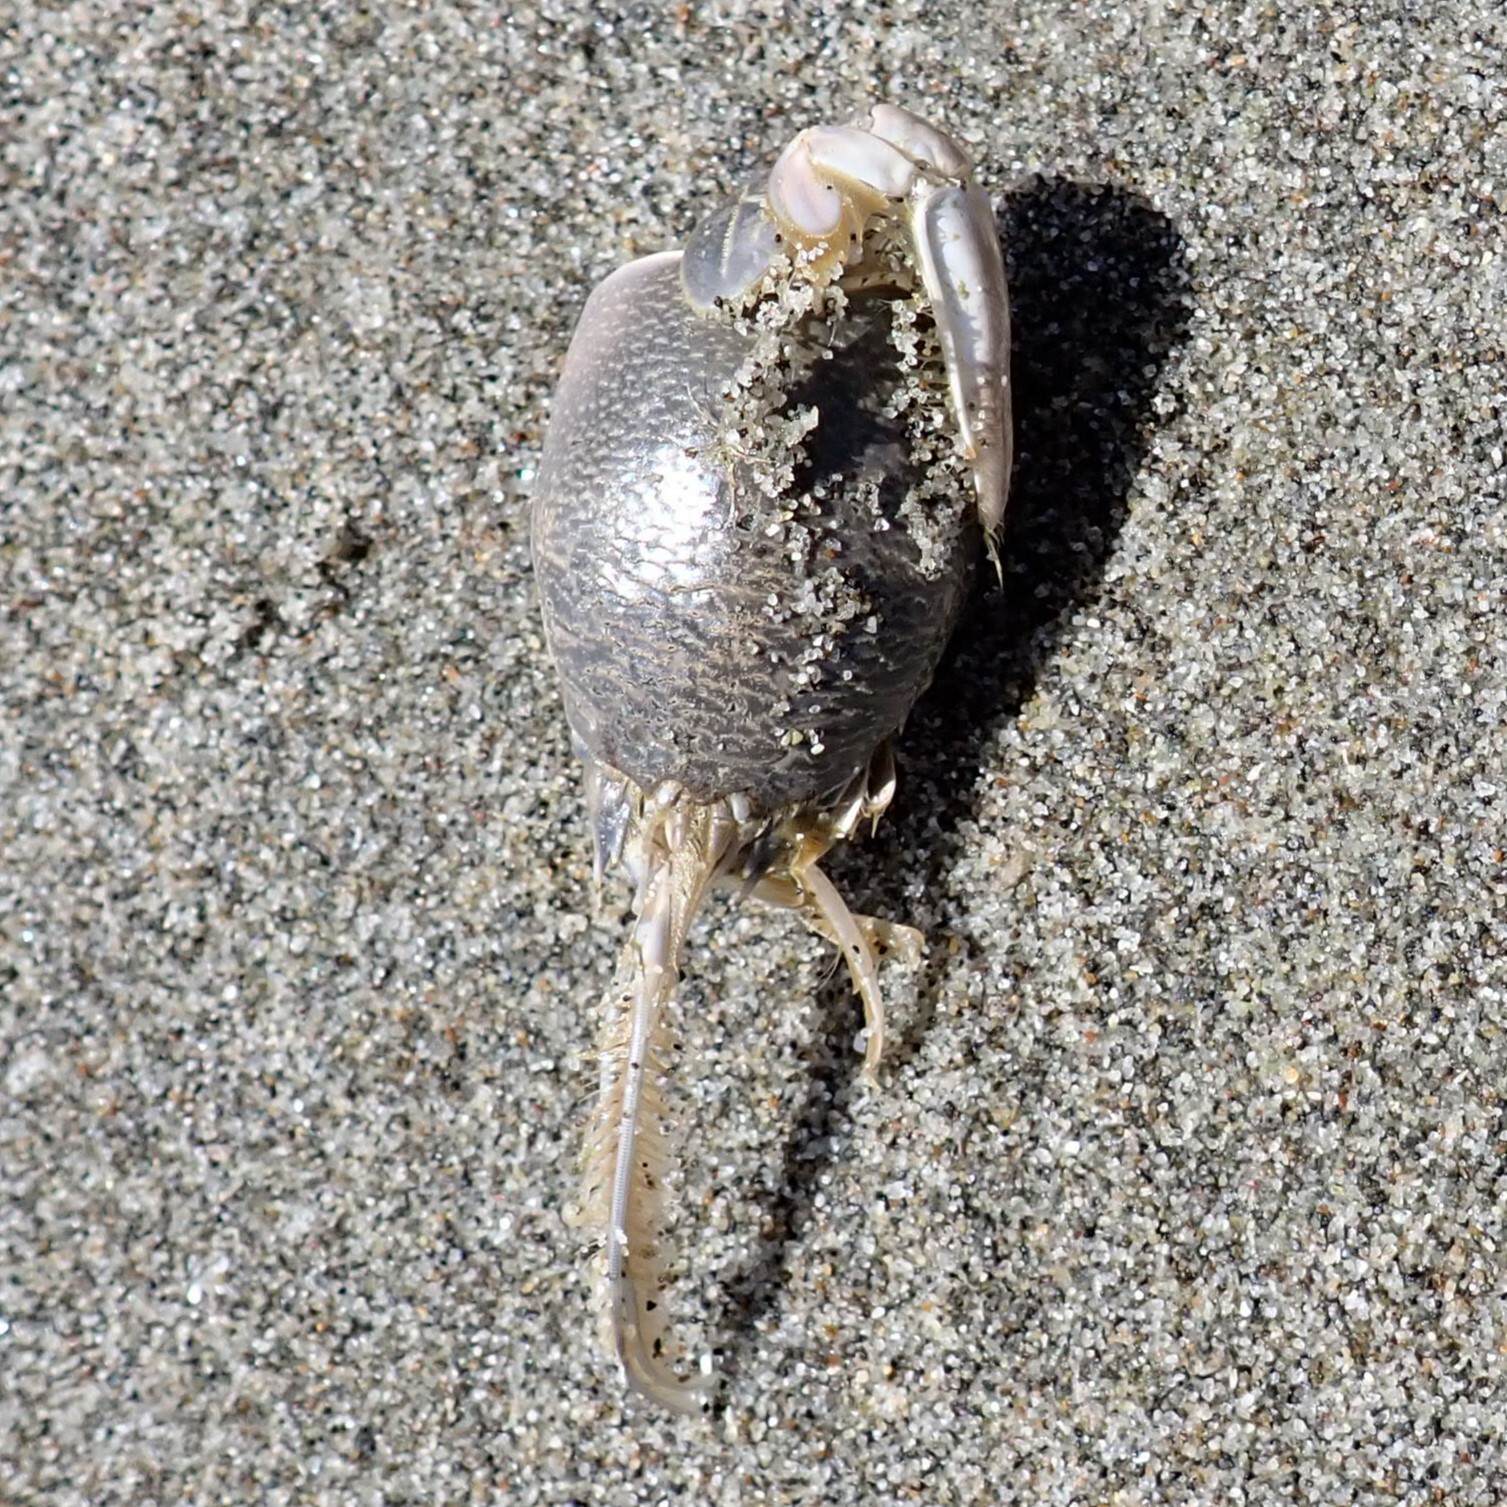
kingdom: Animalia
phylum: Arthropoda
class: Malacostraca
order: Decapoda
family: Hippidae
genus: Emerita
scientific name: Emerita analoga
